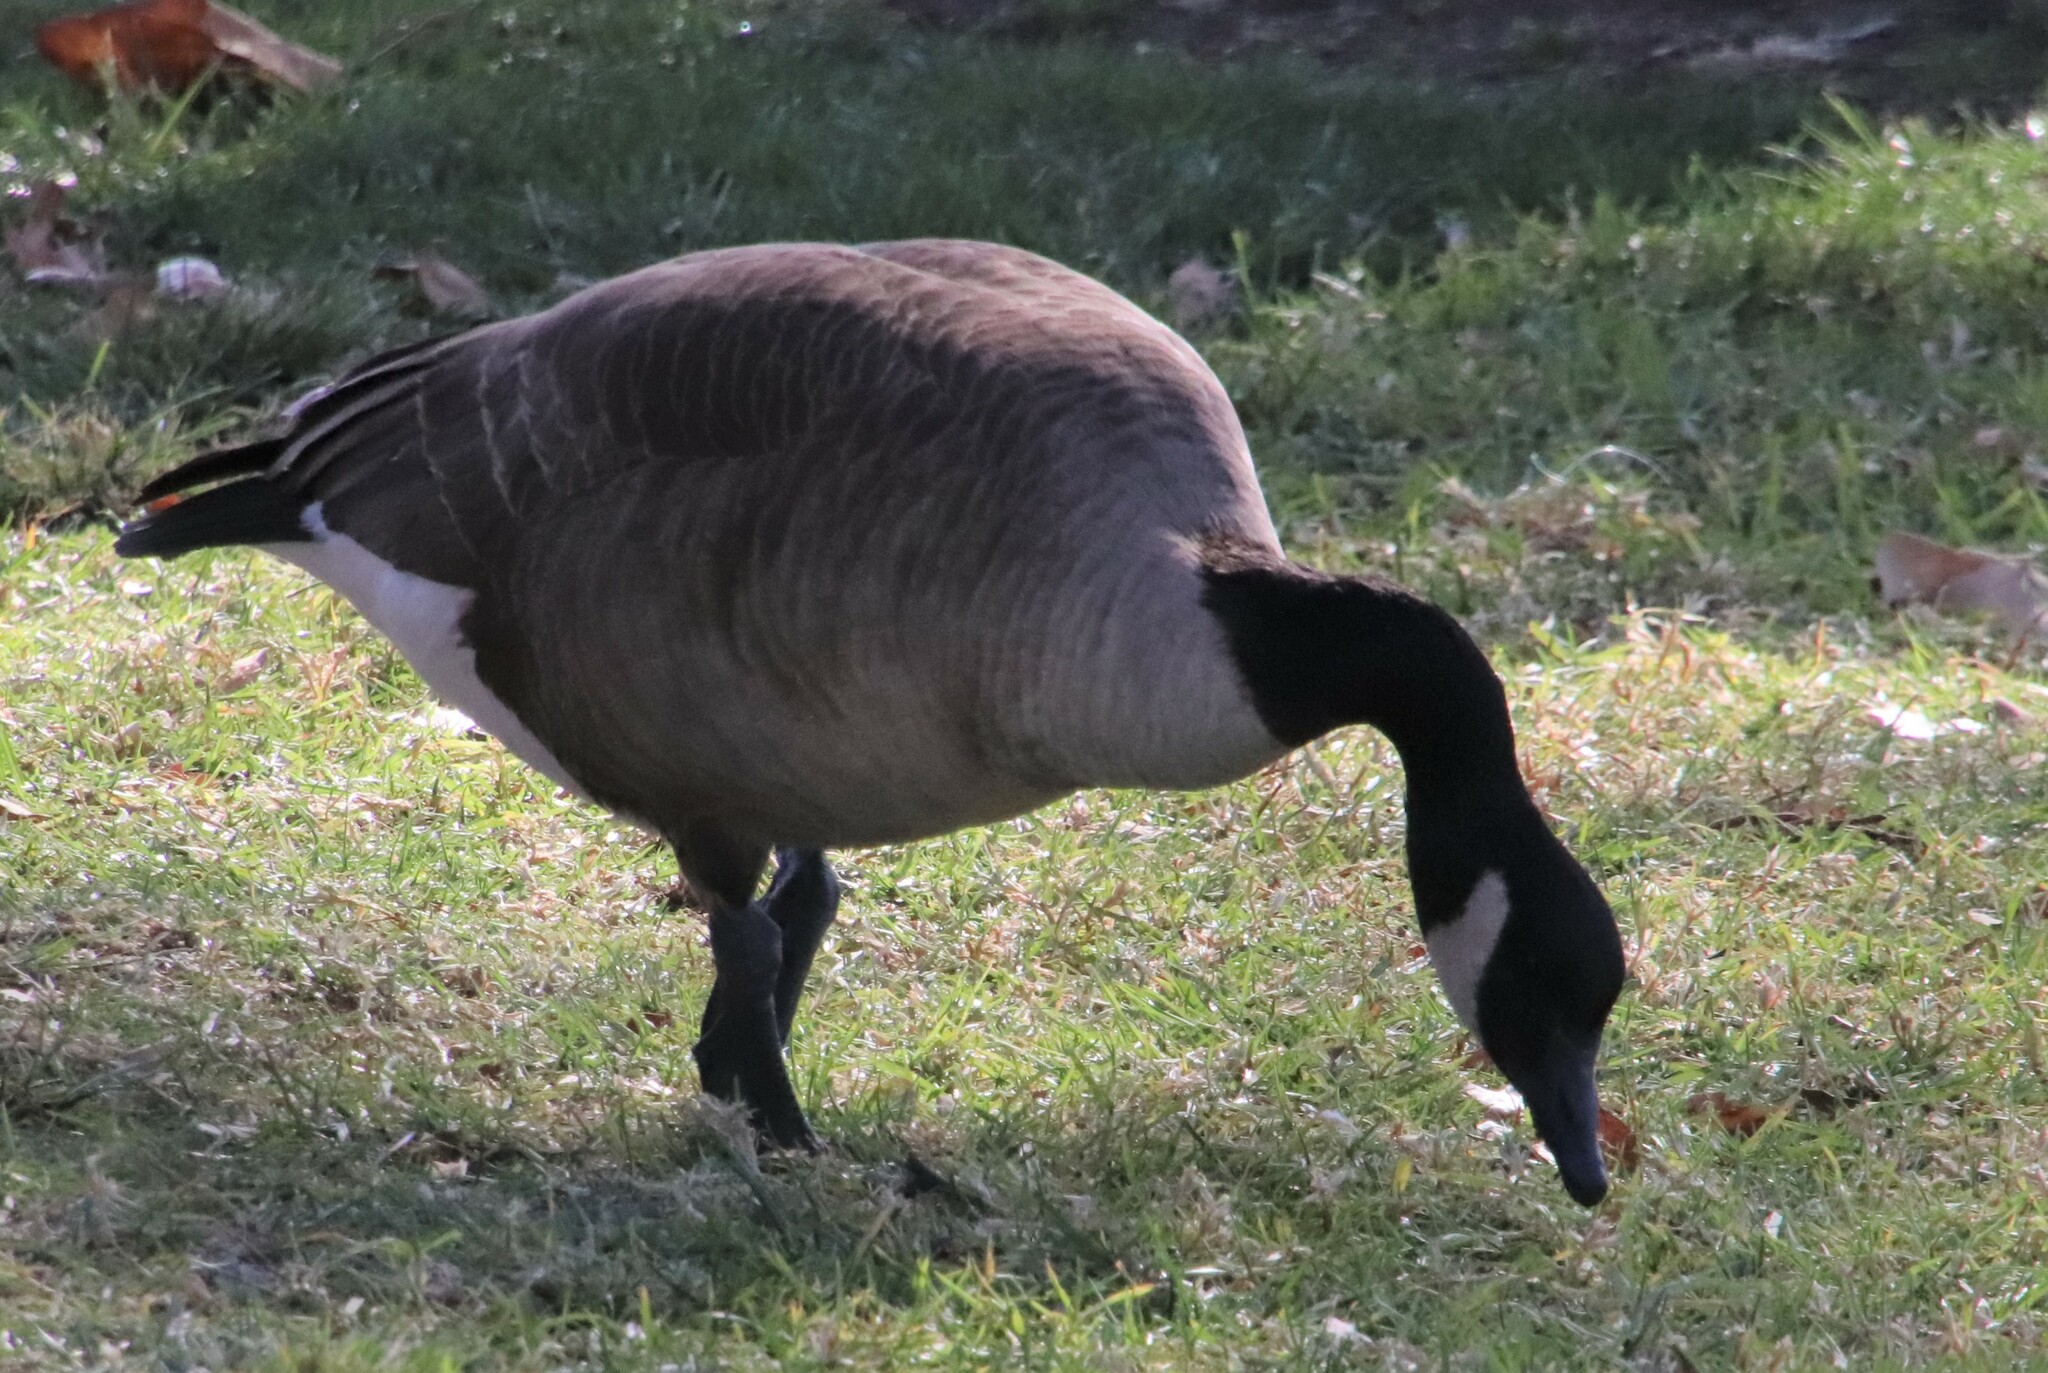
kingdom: Animalia
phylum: Chordata
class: Aves
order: Anseriformes
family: Anatidae
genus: Branta
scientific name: Branta canadensis
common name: Canada goose
